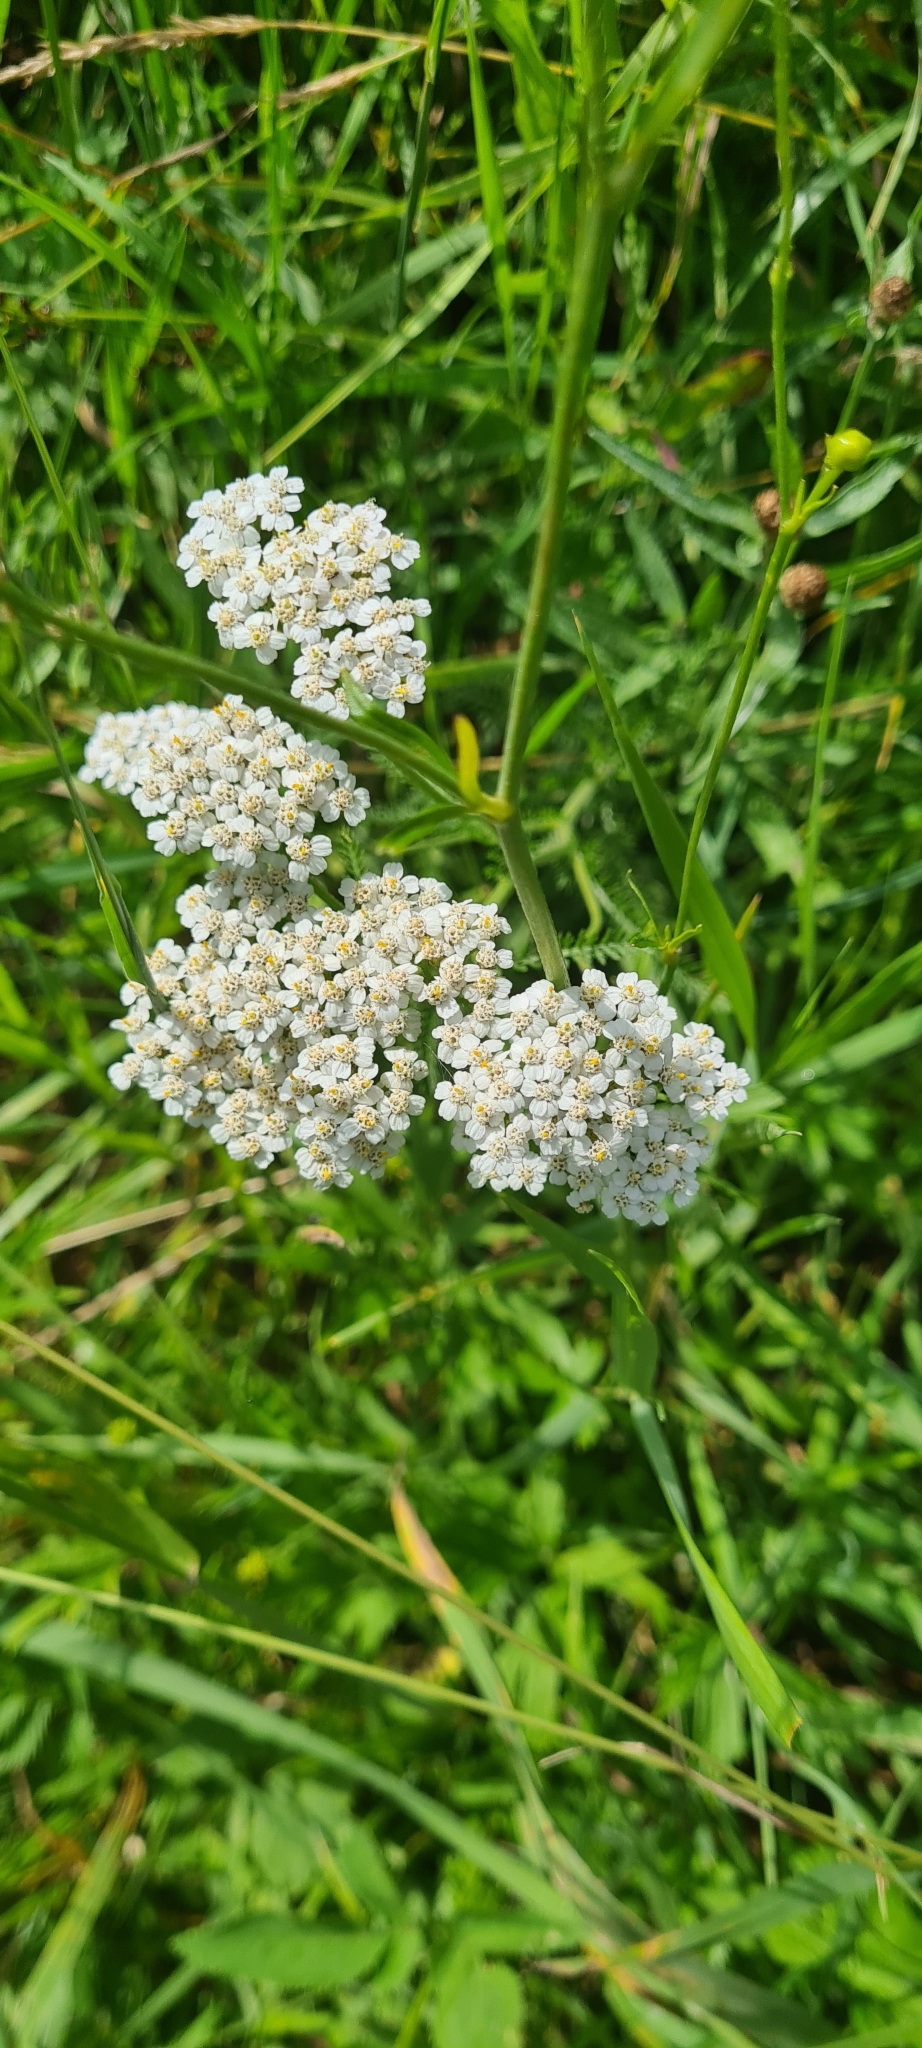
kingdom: Plantae
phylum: Tracheophyta
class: Magnoliopsida
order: Asterales
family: Asteraceae
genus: Achillea
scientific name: Achillea millefolium
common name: Yarrow
